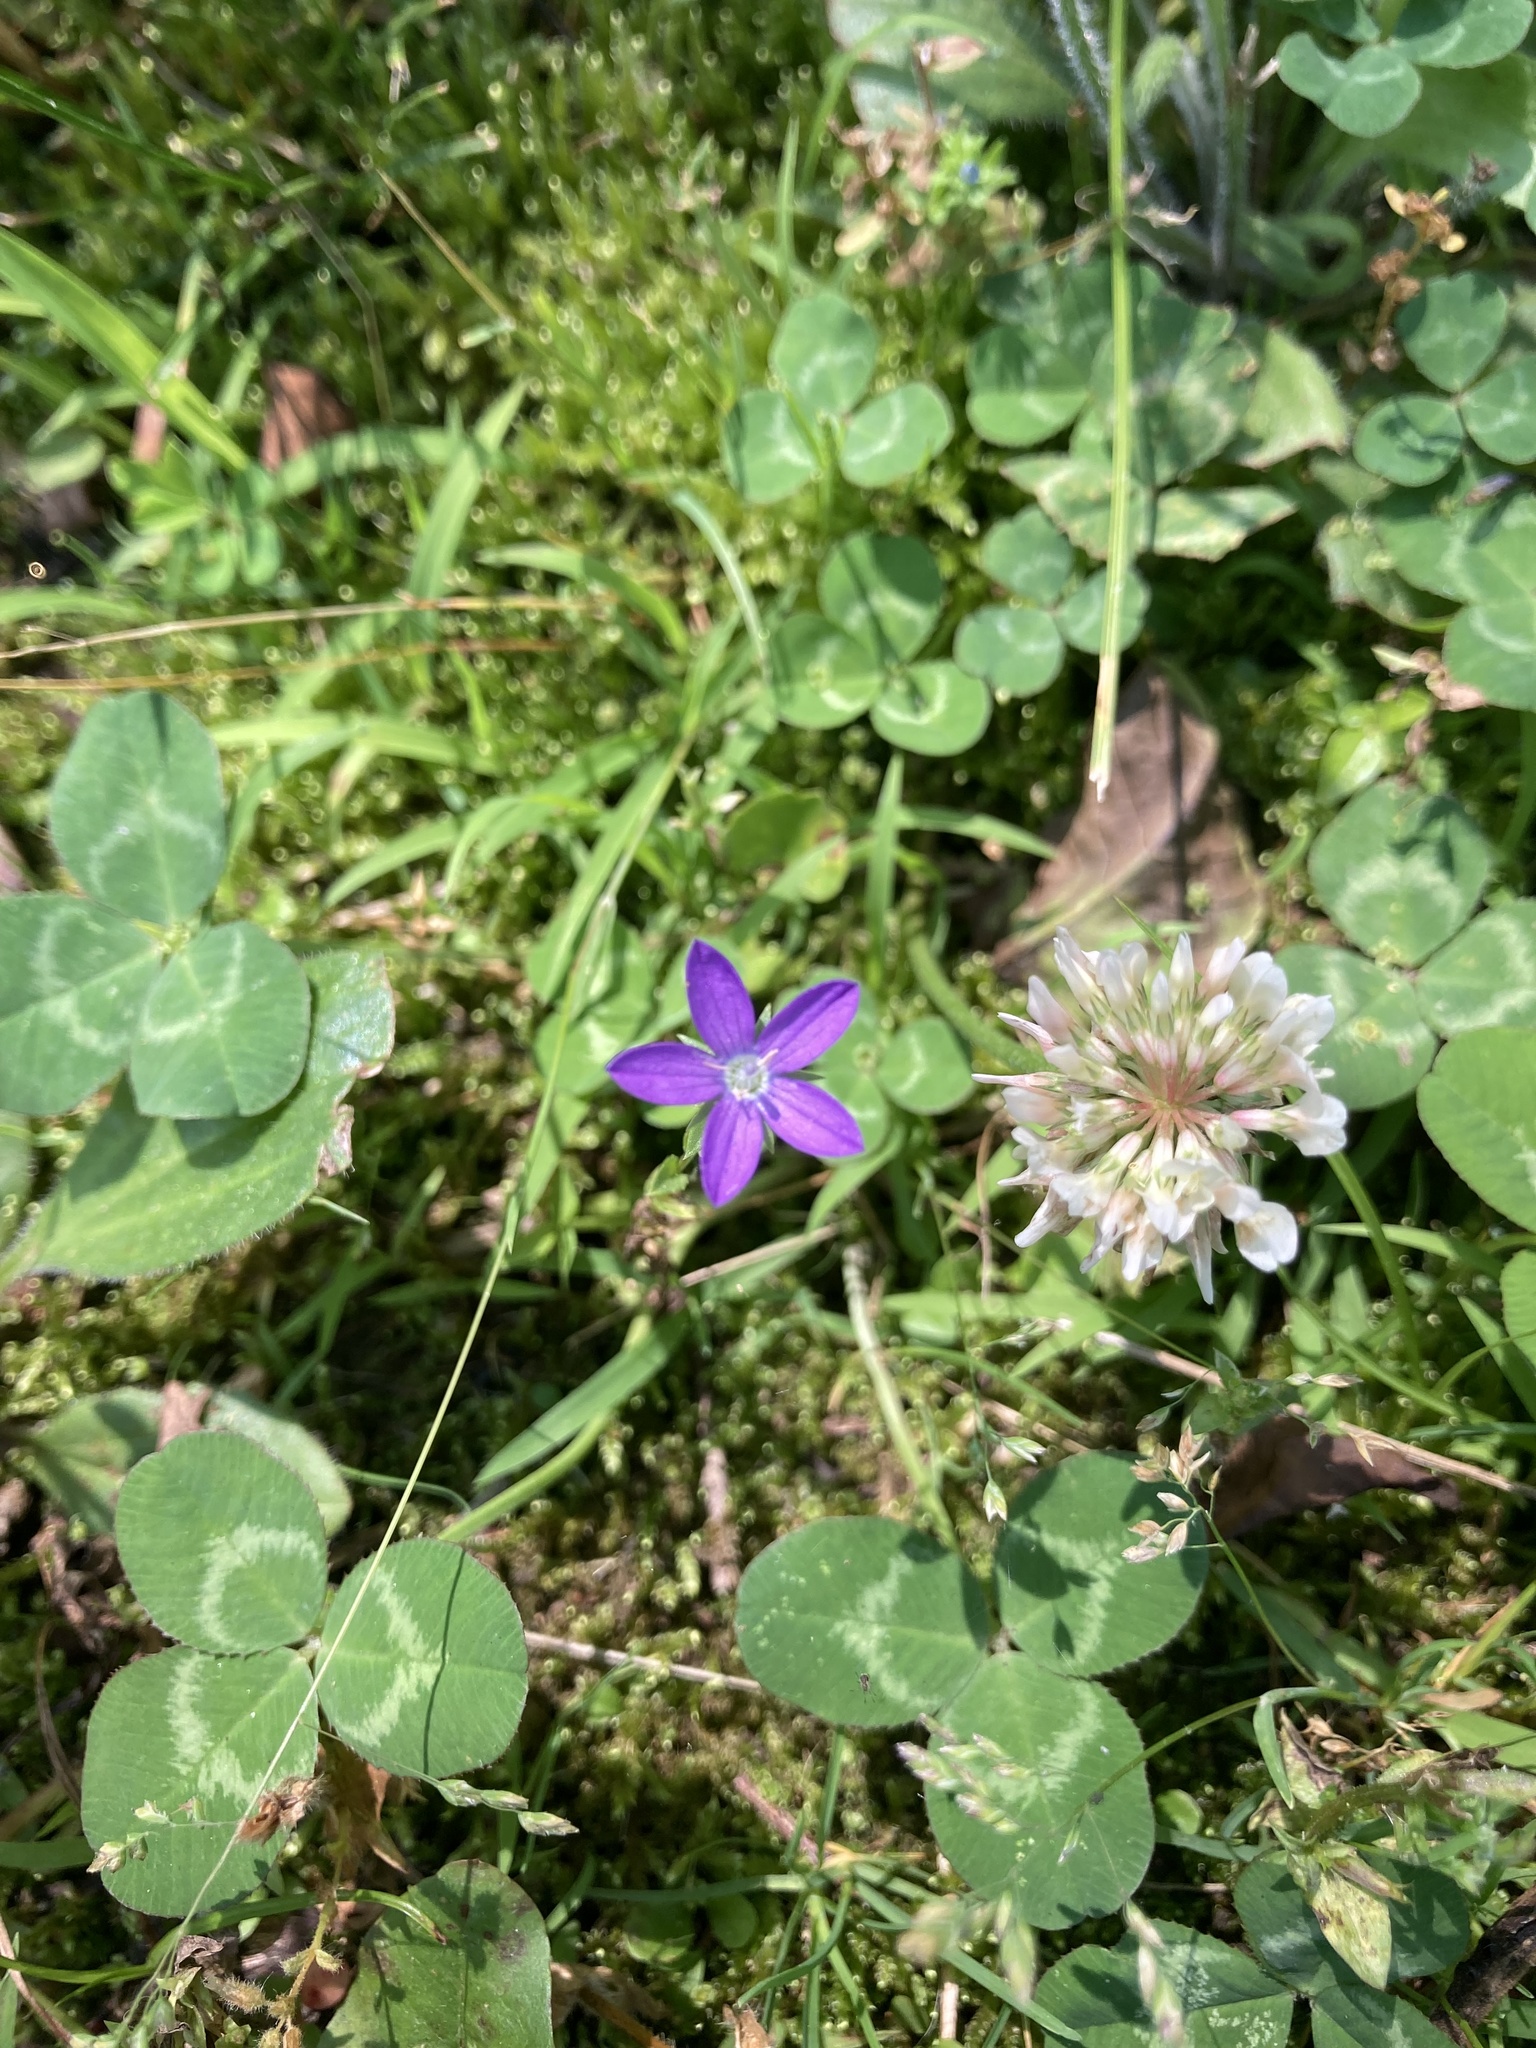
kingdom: Plantae
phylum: Tracheophyta
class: Magnoliopsida
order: Asterales
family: Campanulaceae
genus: Triodanis
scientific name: Triodanis biflora
